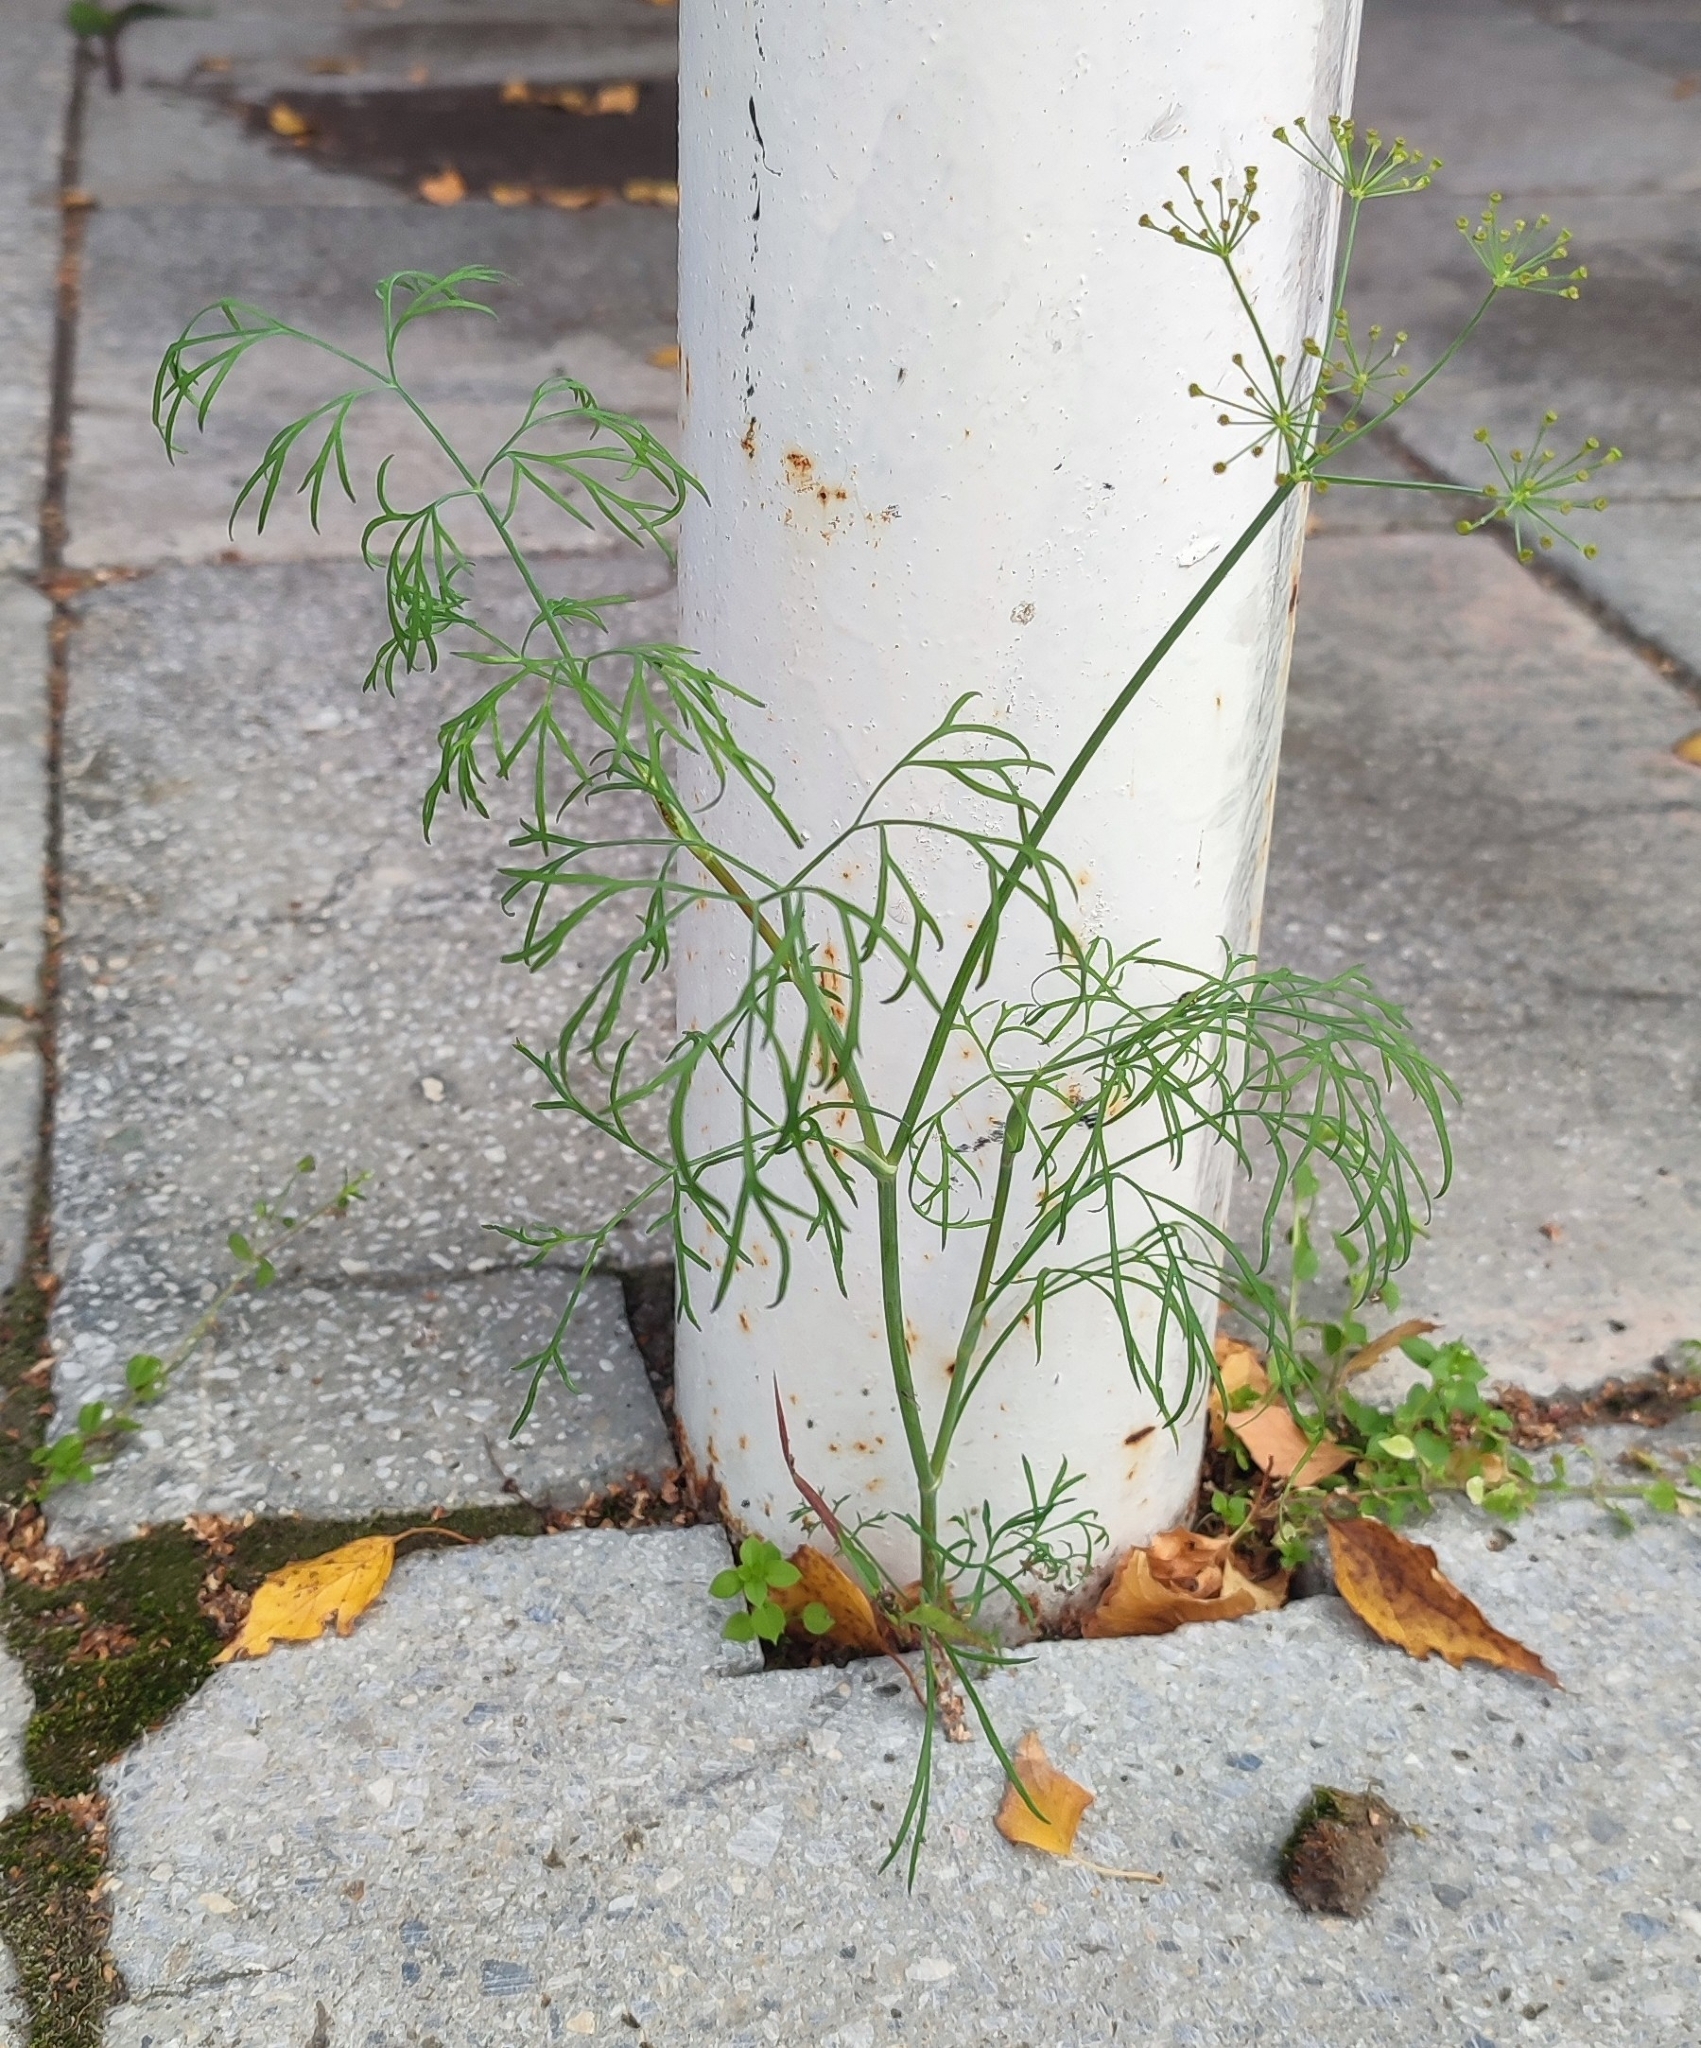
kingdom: Plantae
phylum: Tracheophyta
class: Magnoliopsida
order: Apiales
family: Apiaceae
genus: Anethum
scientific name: Anethum graveolens
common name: Dill
